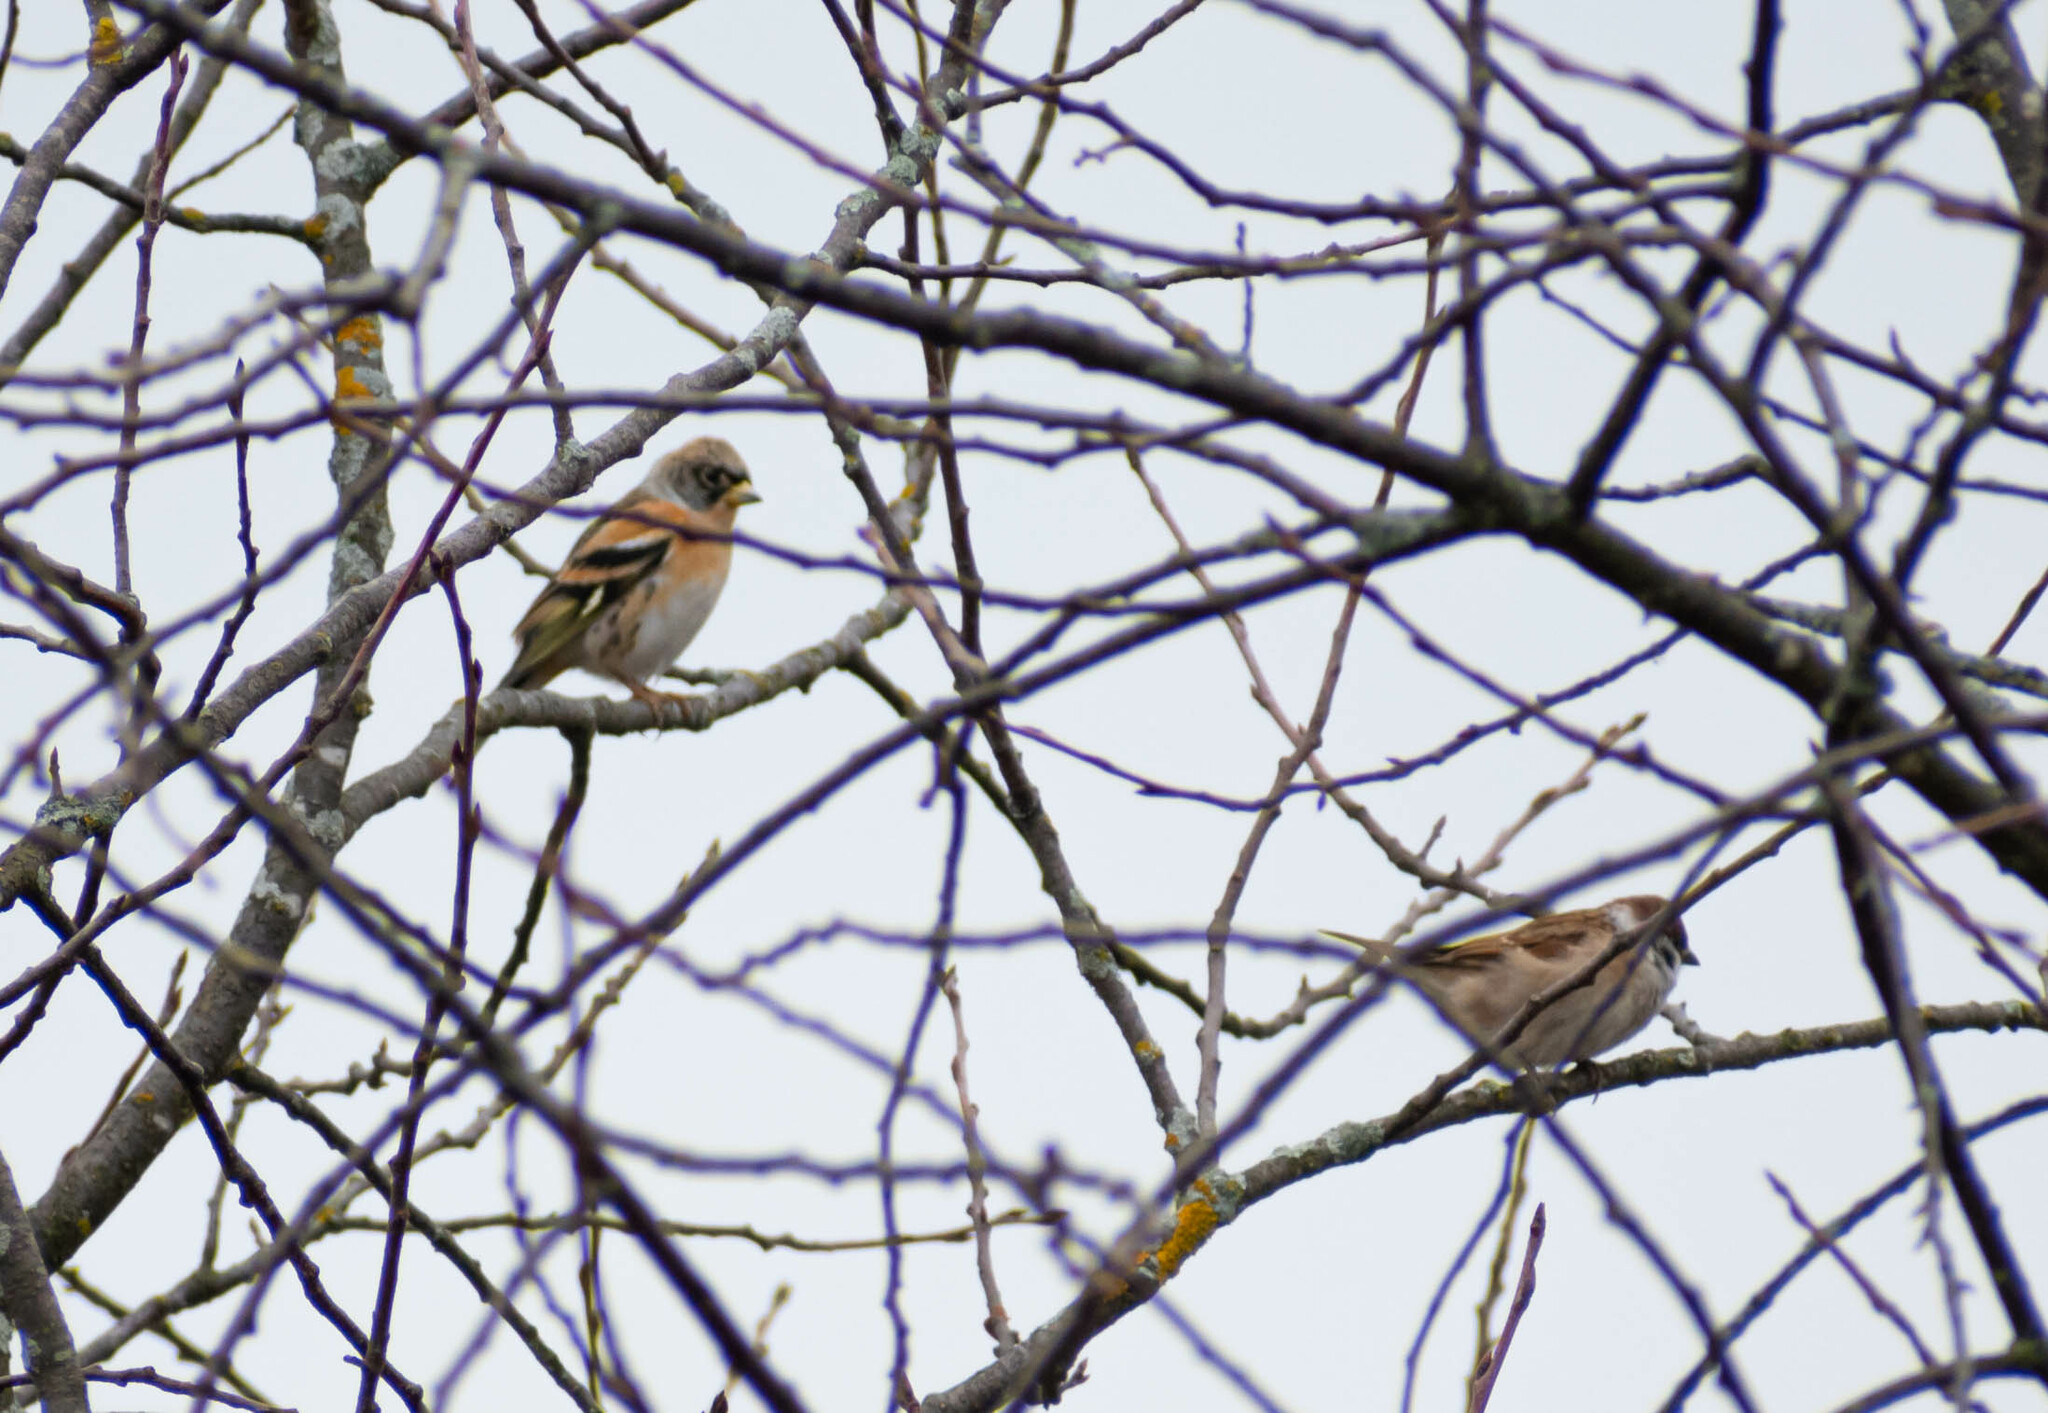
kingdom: Animalia
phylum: Chordata
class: Aves
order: Passeriformes
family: Fringillidae
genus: Fringilla
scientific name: Fringilla montifringilla
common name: Brambling
